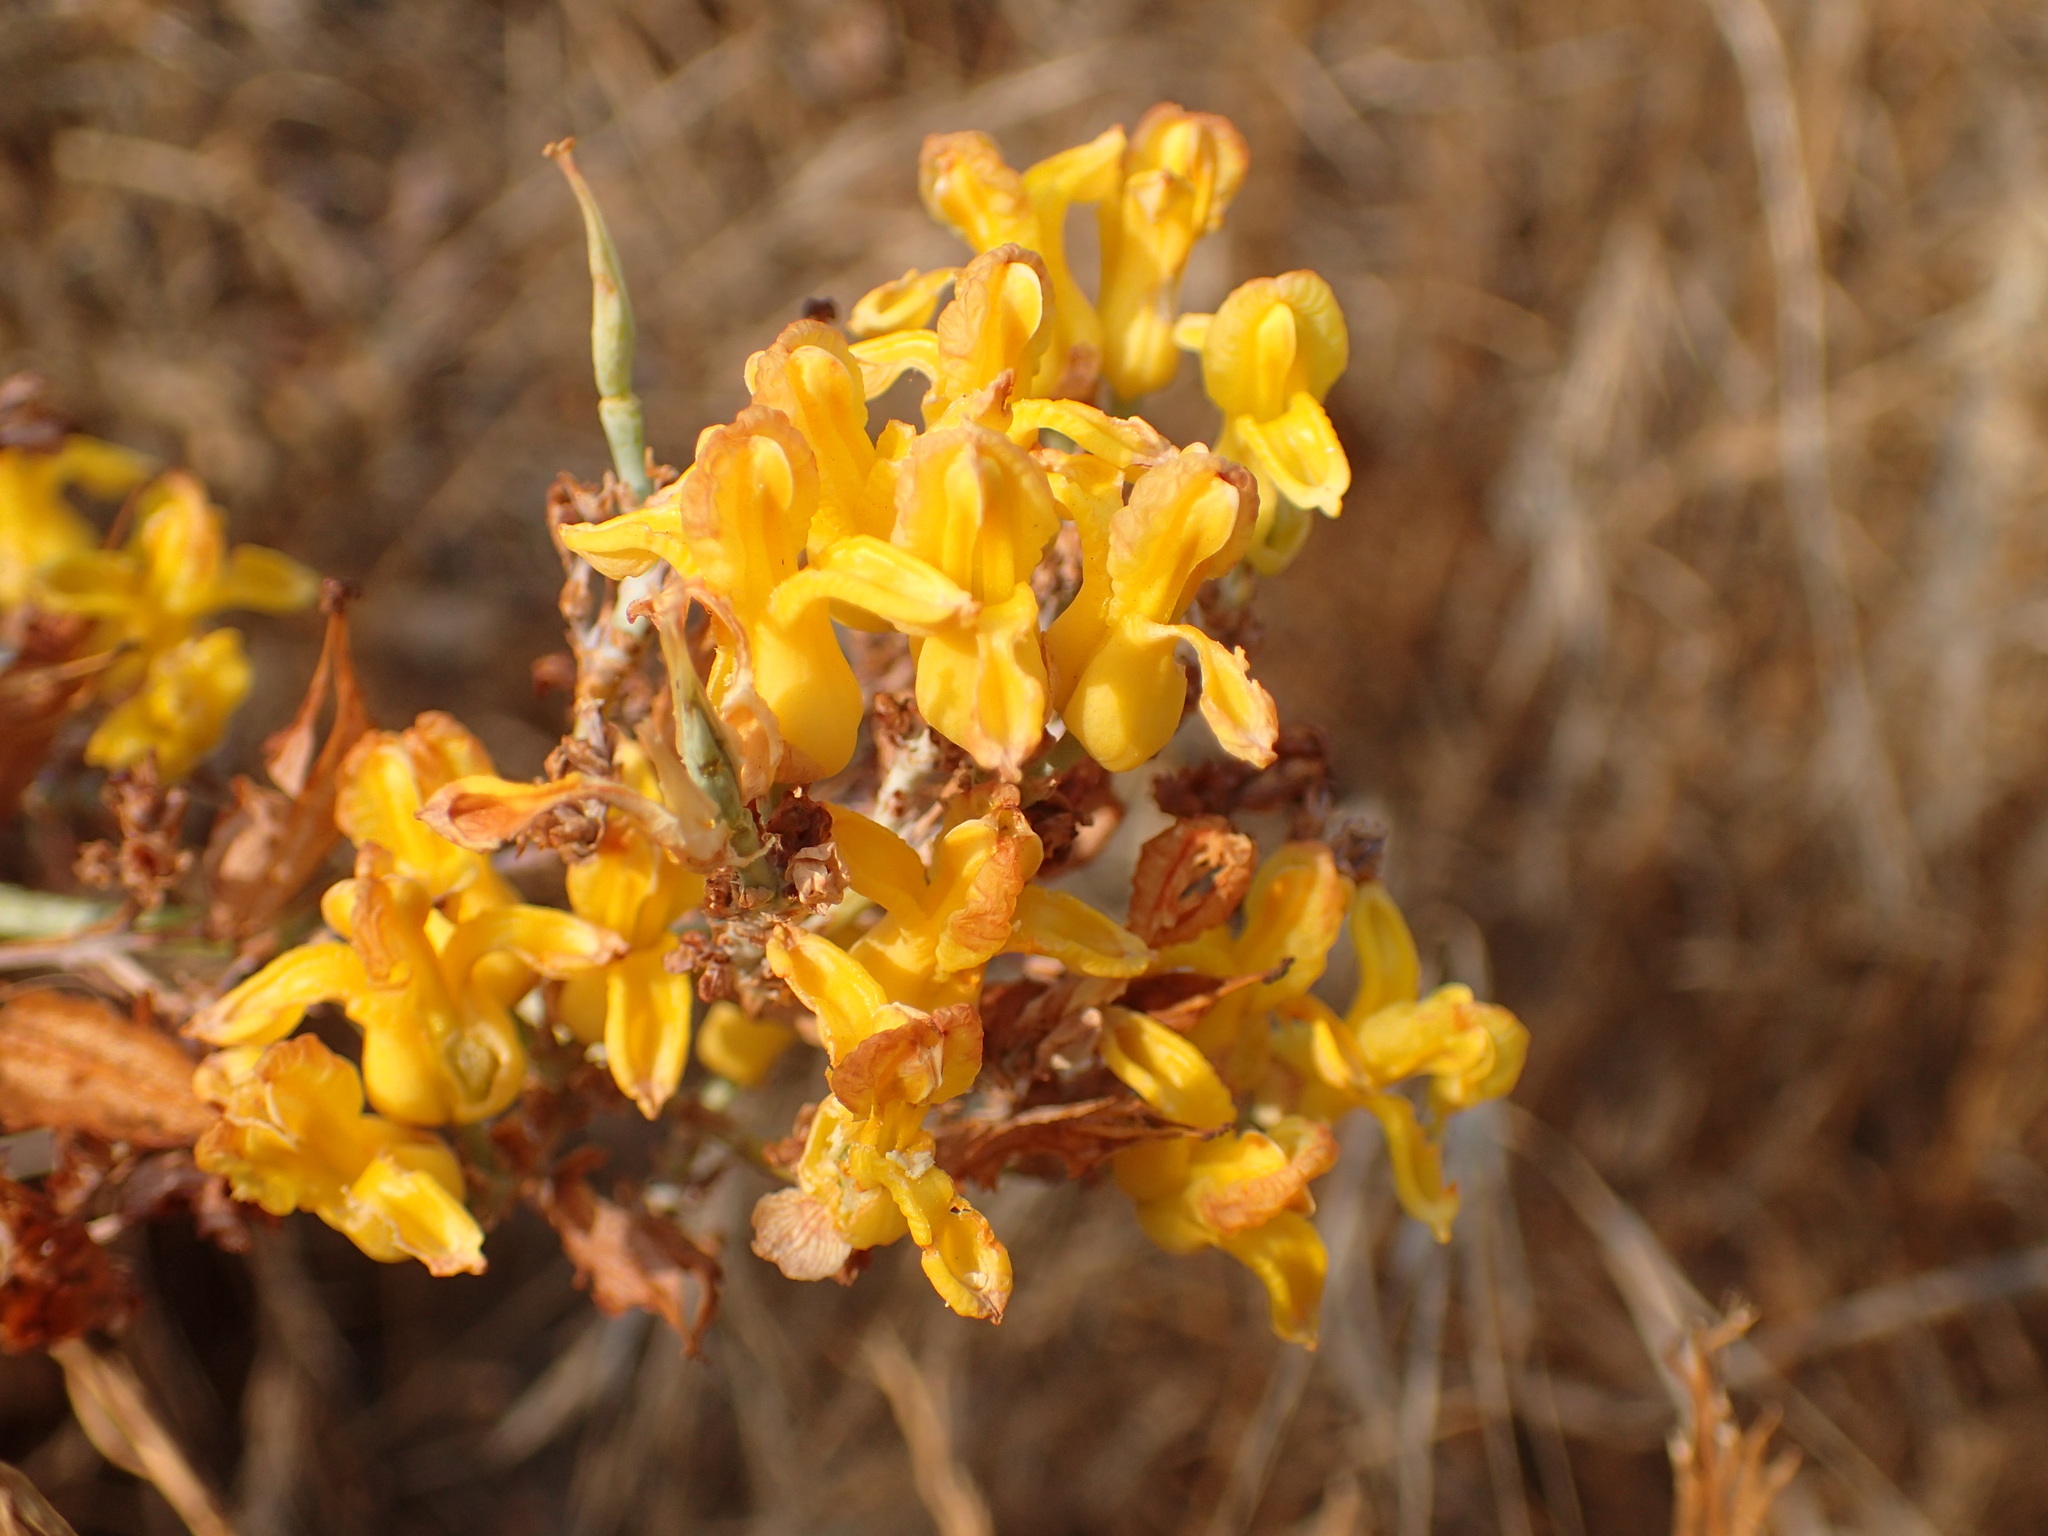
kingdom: Plantae
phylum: Tracheophyta
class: Magnoliopsida
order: Ranunculales
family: Papaveraceae
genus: Ehrendorferia
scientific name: Ehrendorferia chrysantha
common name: Golden eardrops
